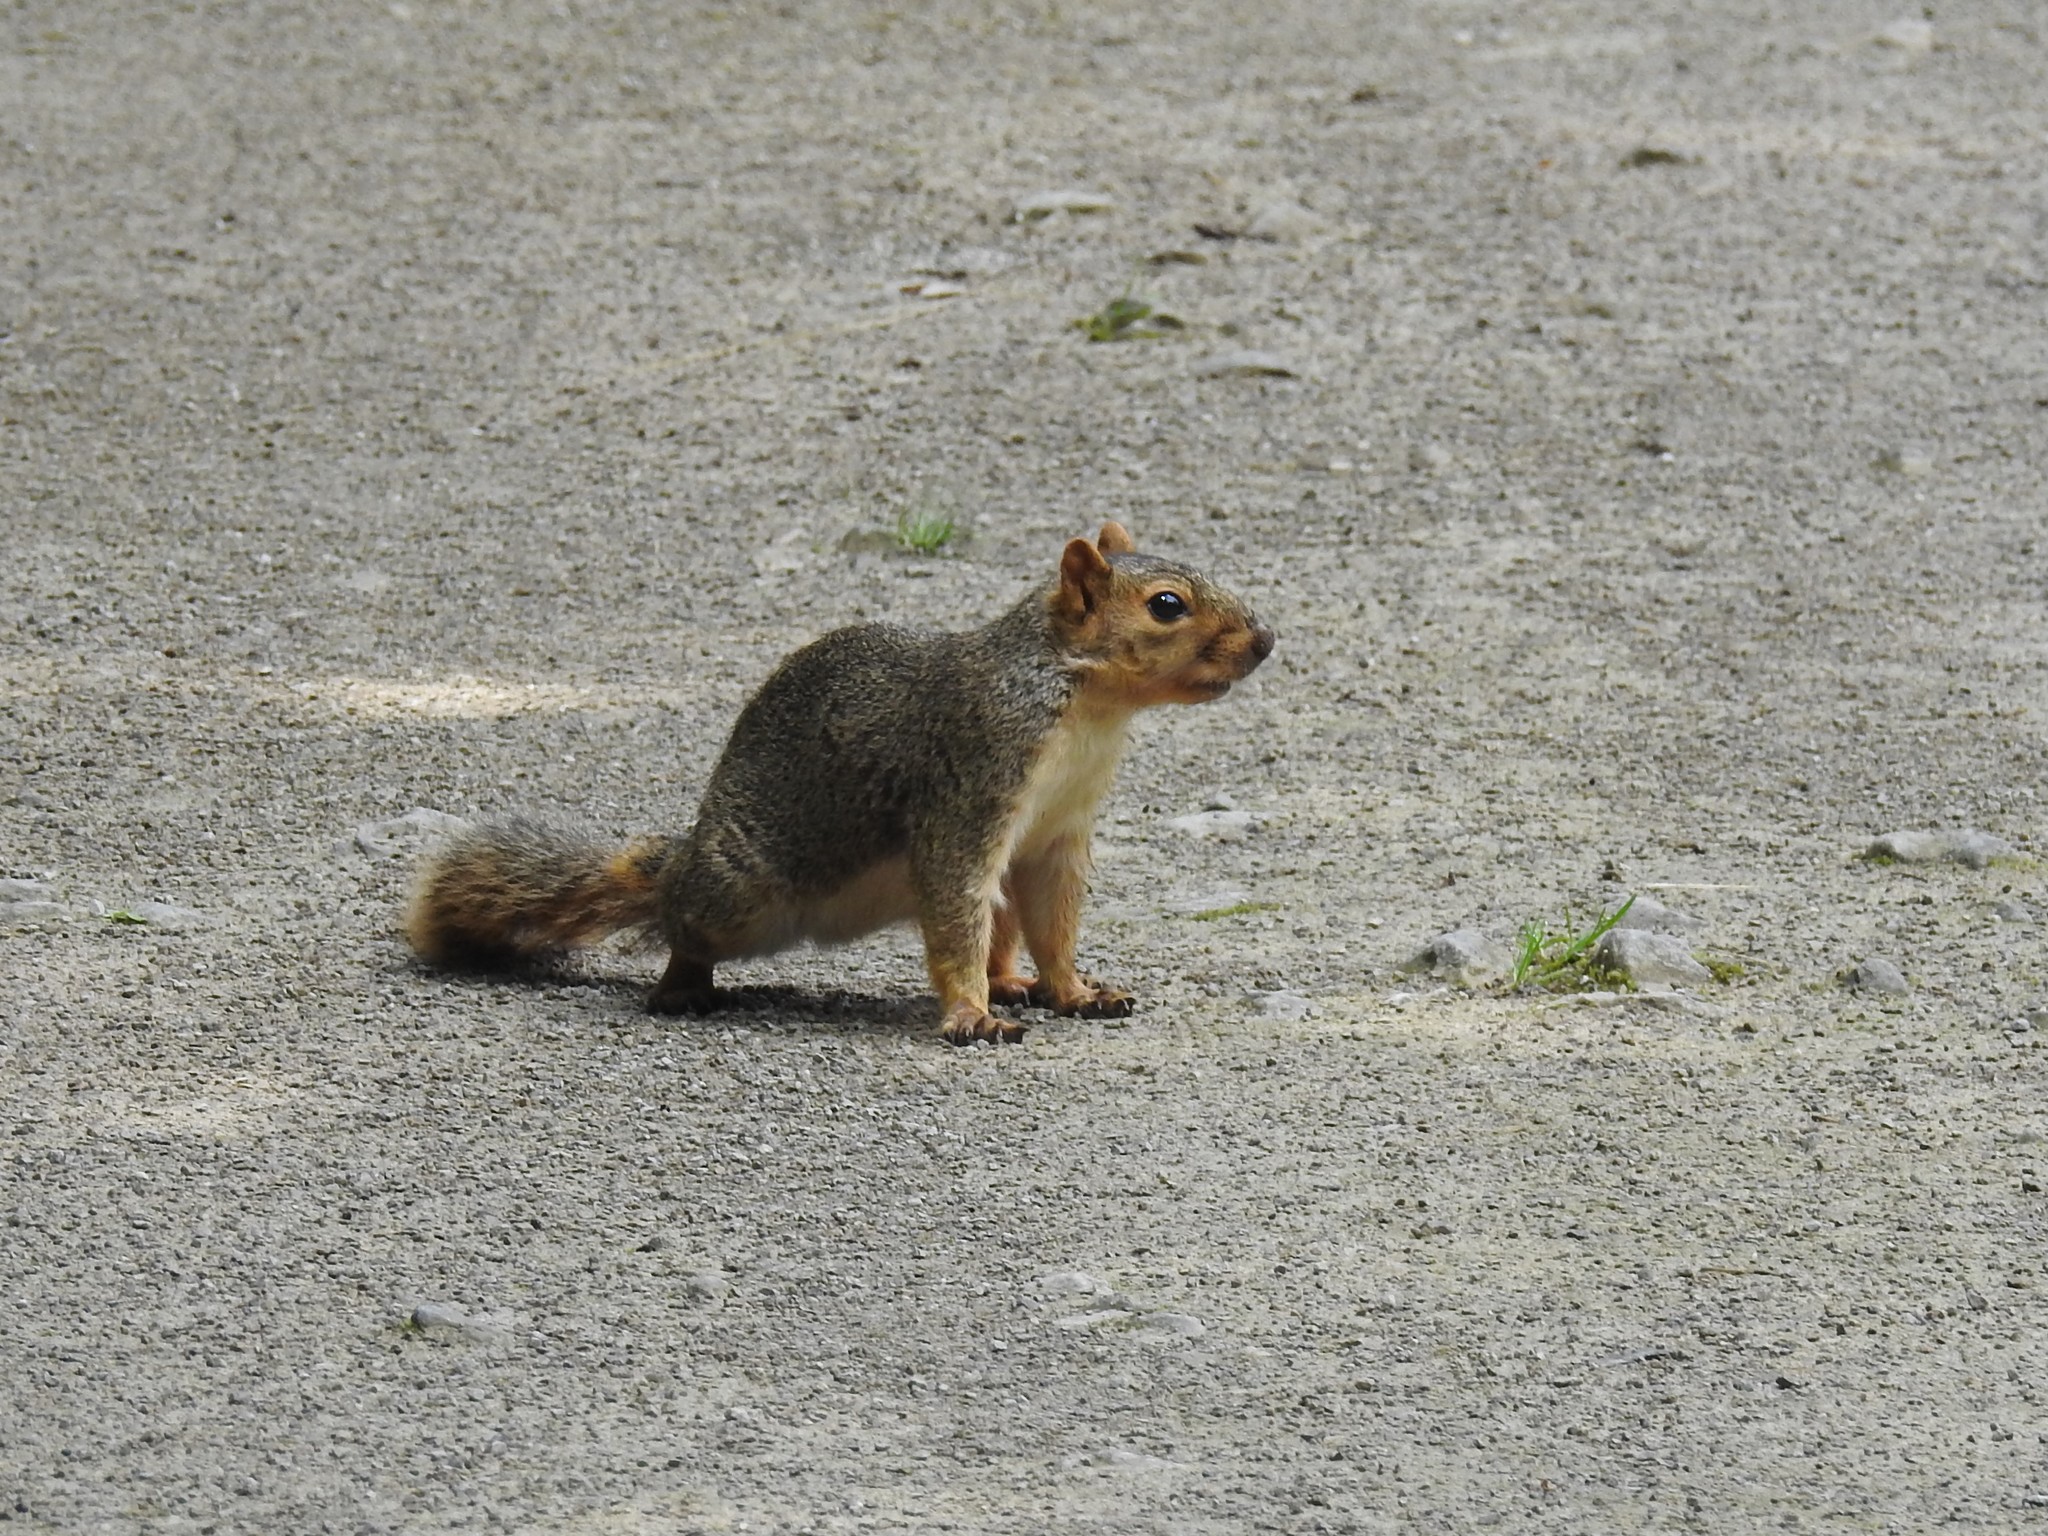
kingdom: Animalia
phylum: Chordata
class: Mammalia
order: Rodentia
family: Sciuridae
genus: Sciurus
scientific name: Sciurus niger
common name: Fox squirrel
